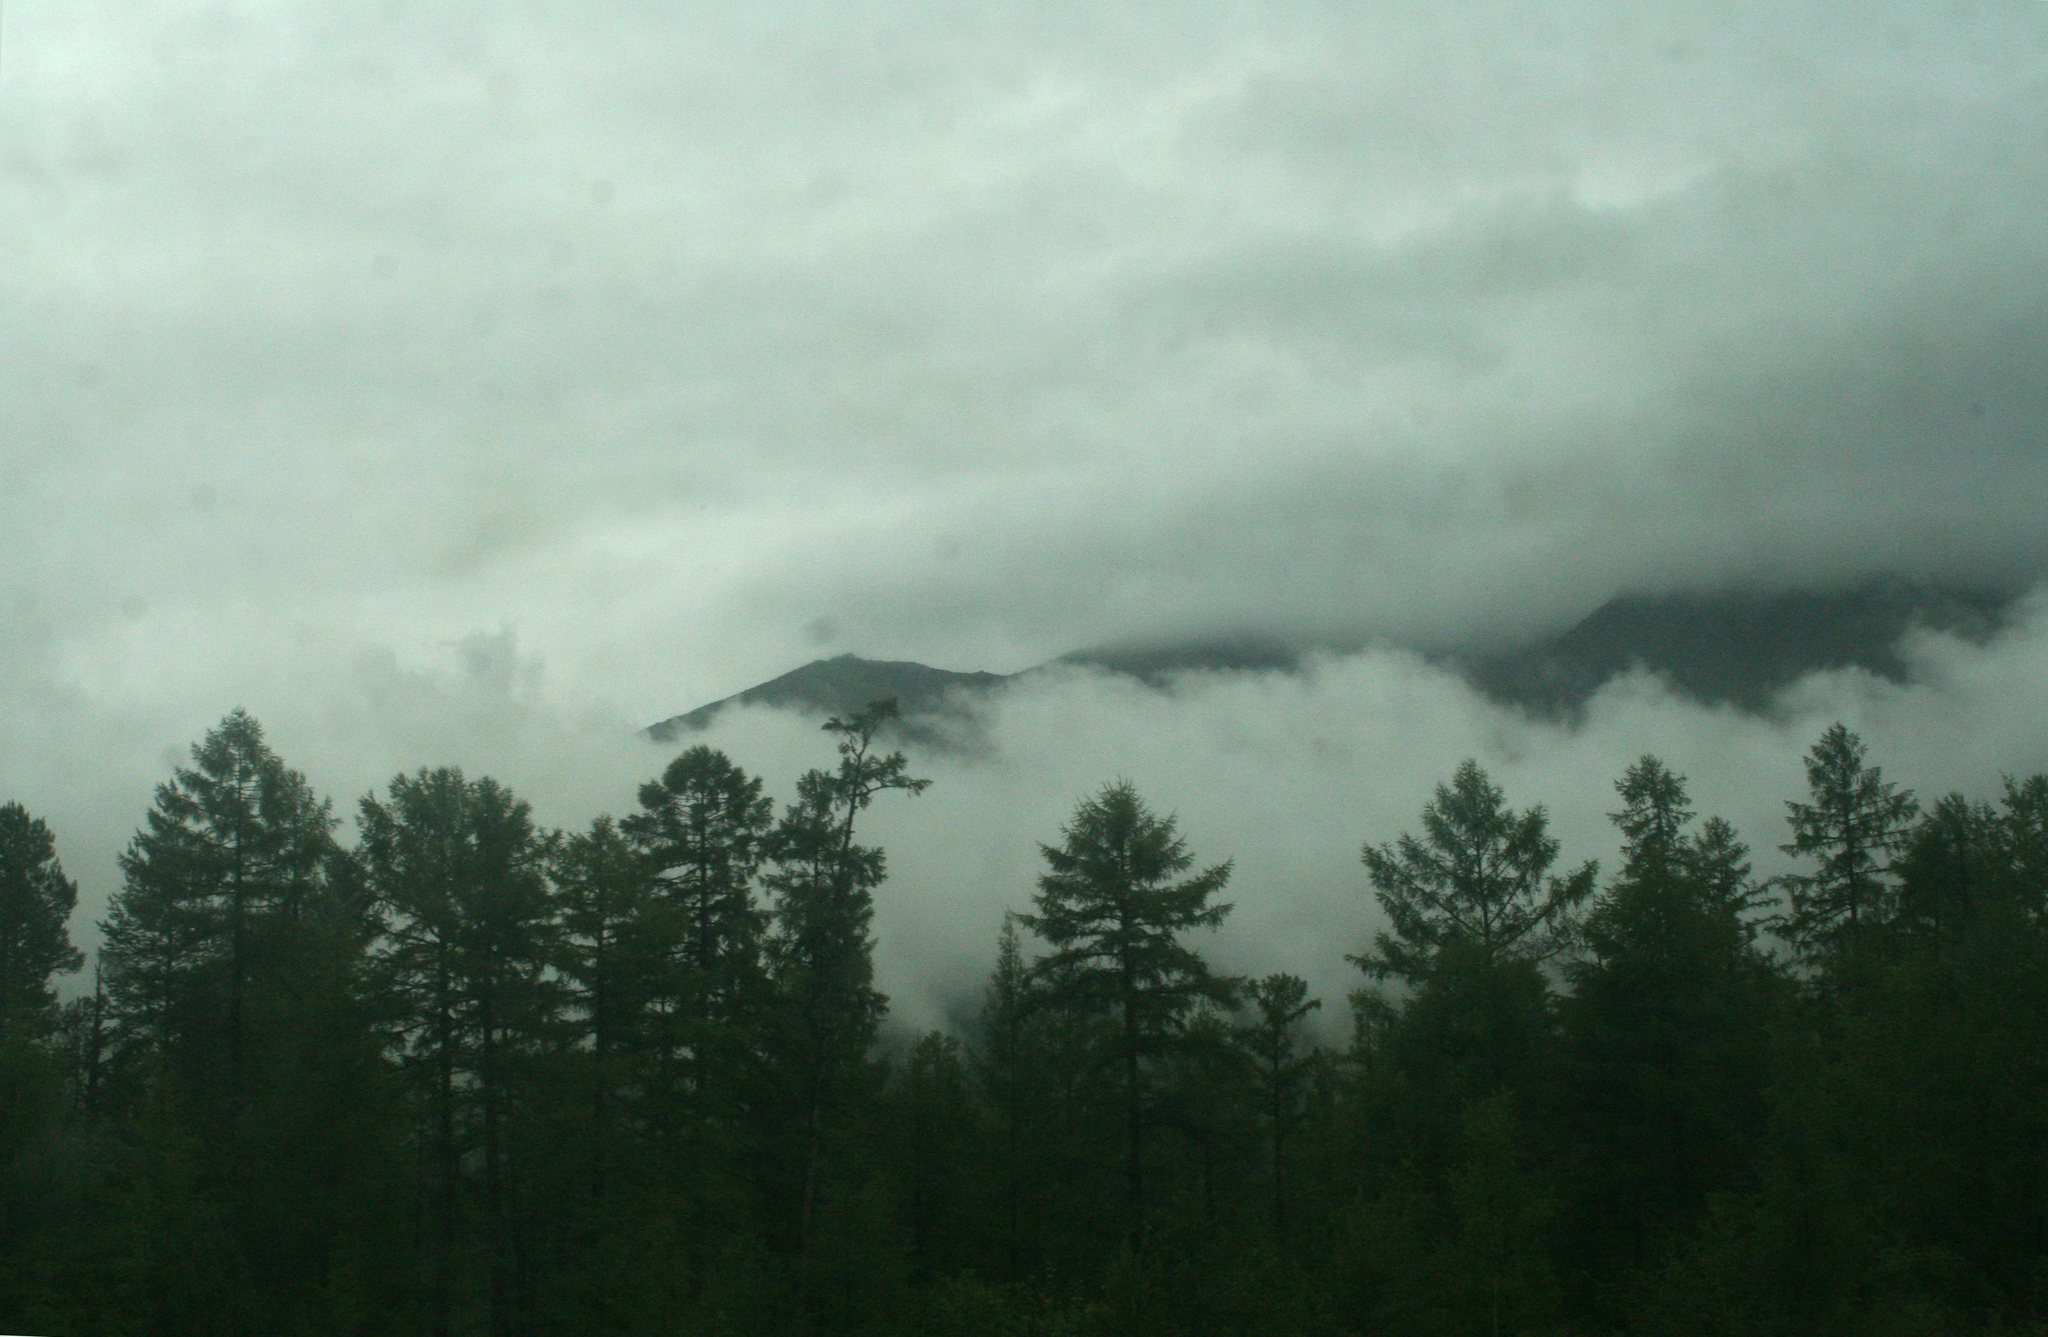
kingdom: Plantae
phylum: Tracheophyta
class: Pinopsida
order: Pinales
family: Pinaceae
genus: Larix
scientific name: Larix gmelinii
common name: Dahurian larch
